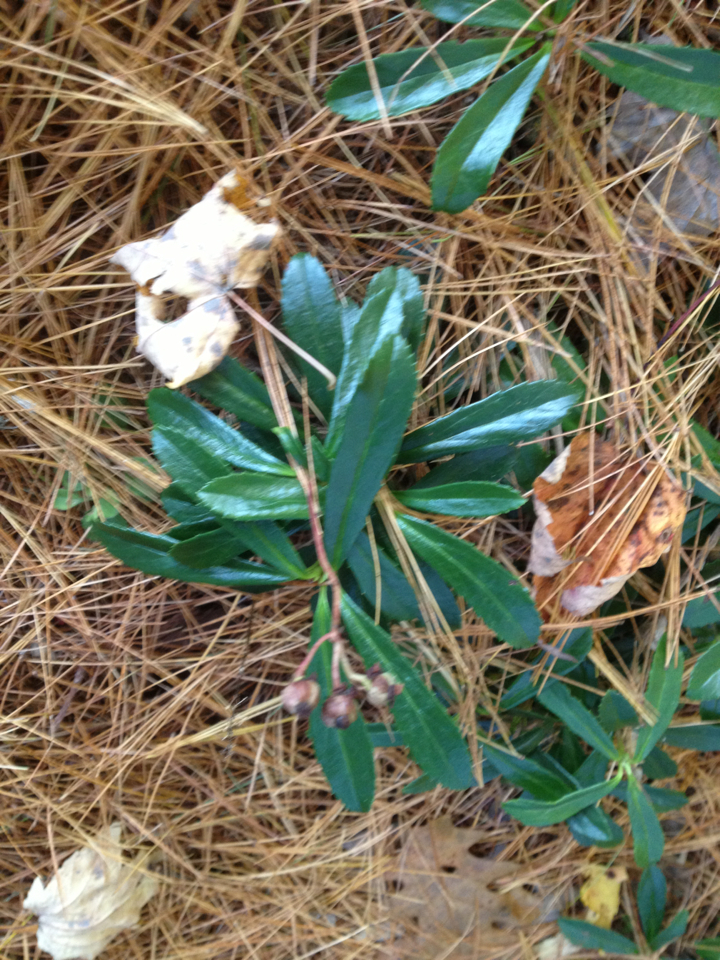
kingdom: Plantae
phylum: Tracheophyta
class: Magnoliopsida
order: Ericales
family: Ericaceae
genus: Chimaphila
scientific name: Chimaphila umbellata
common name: Pipsissewa
